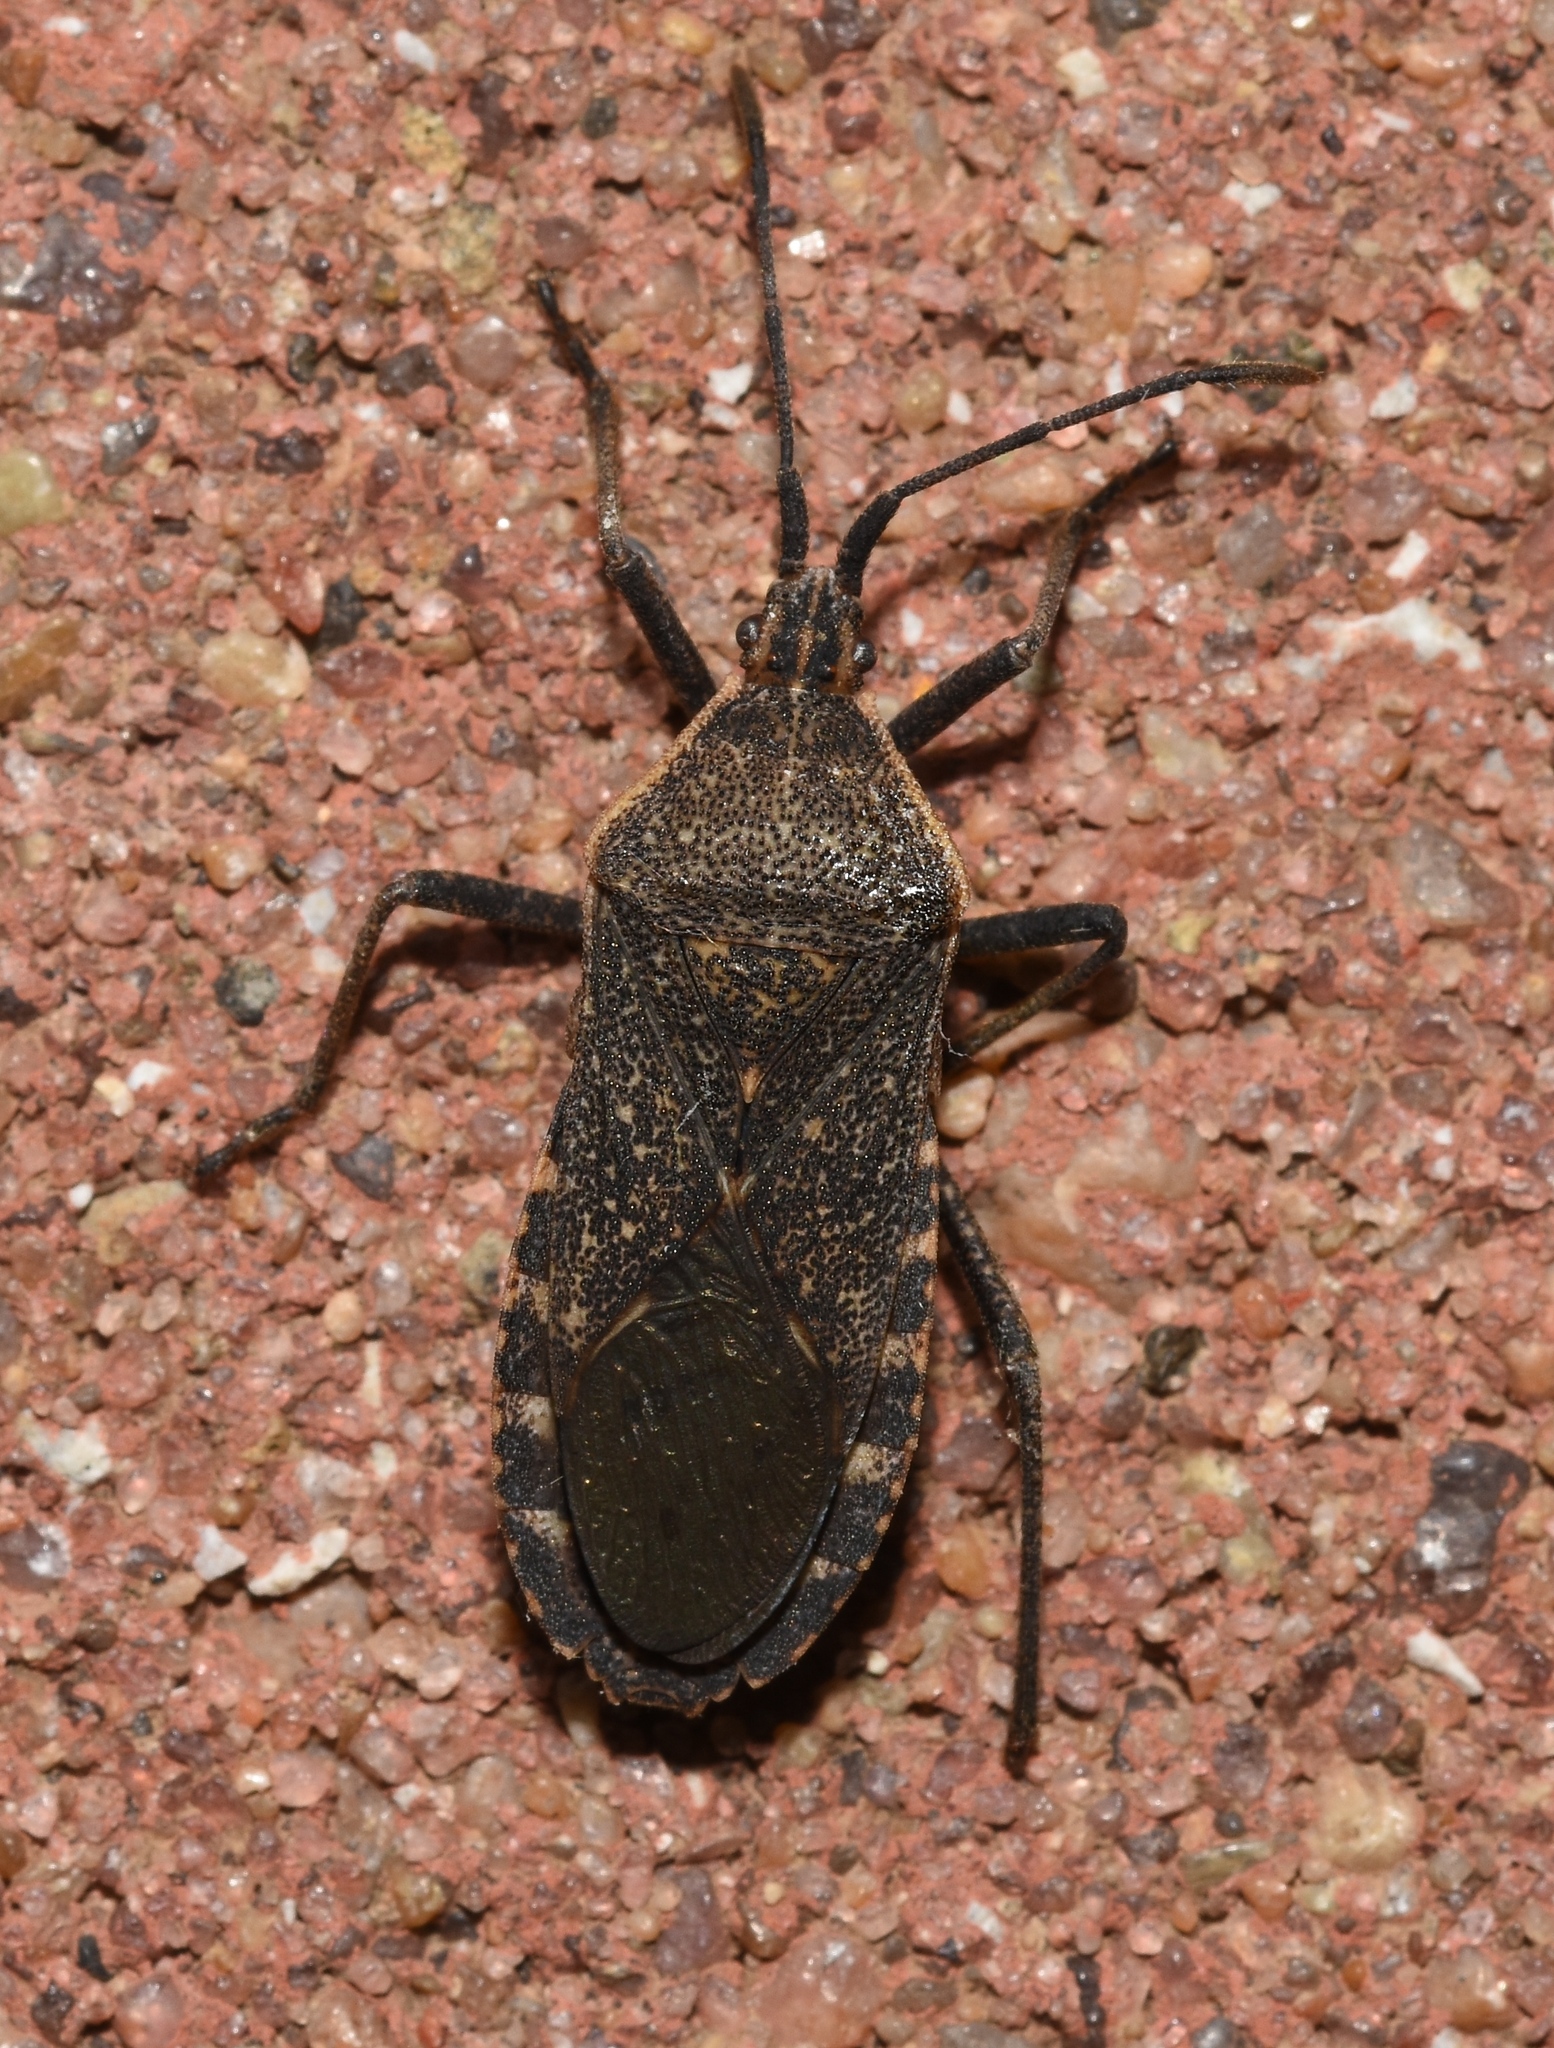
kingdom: Animalia
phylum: Arthropoda
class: Insecta
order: Hemiptera
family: Coreidae
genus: Anasa
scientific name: Anasa tristis
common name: Squash bug
